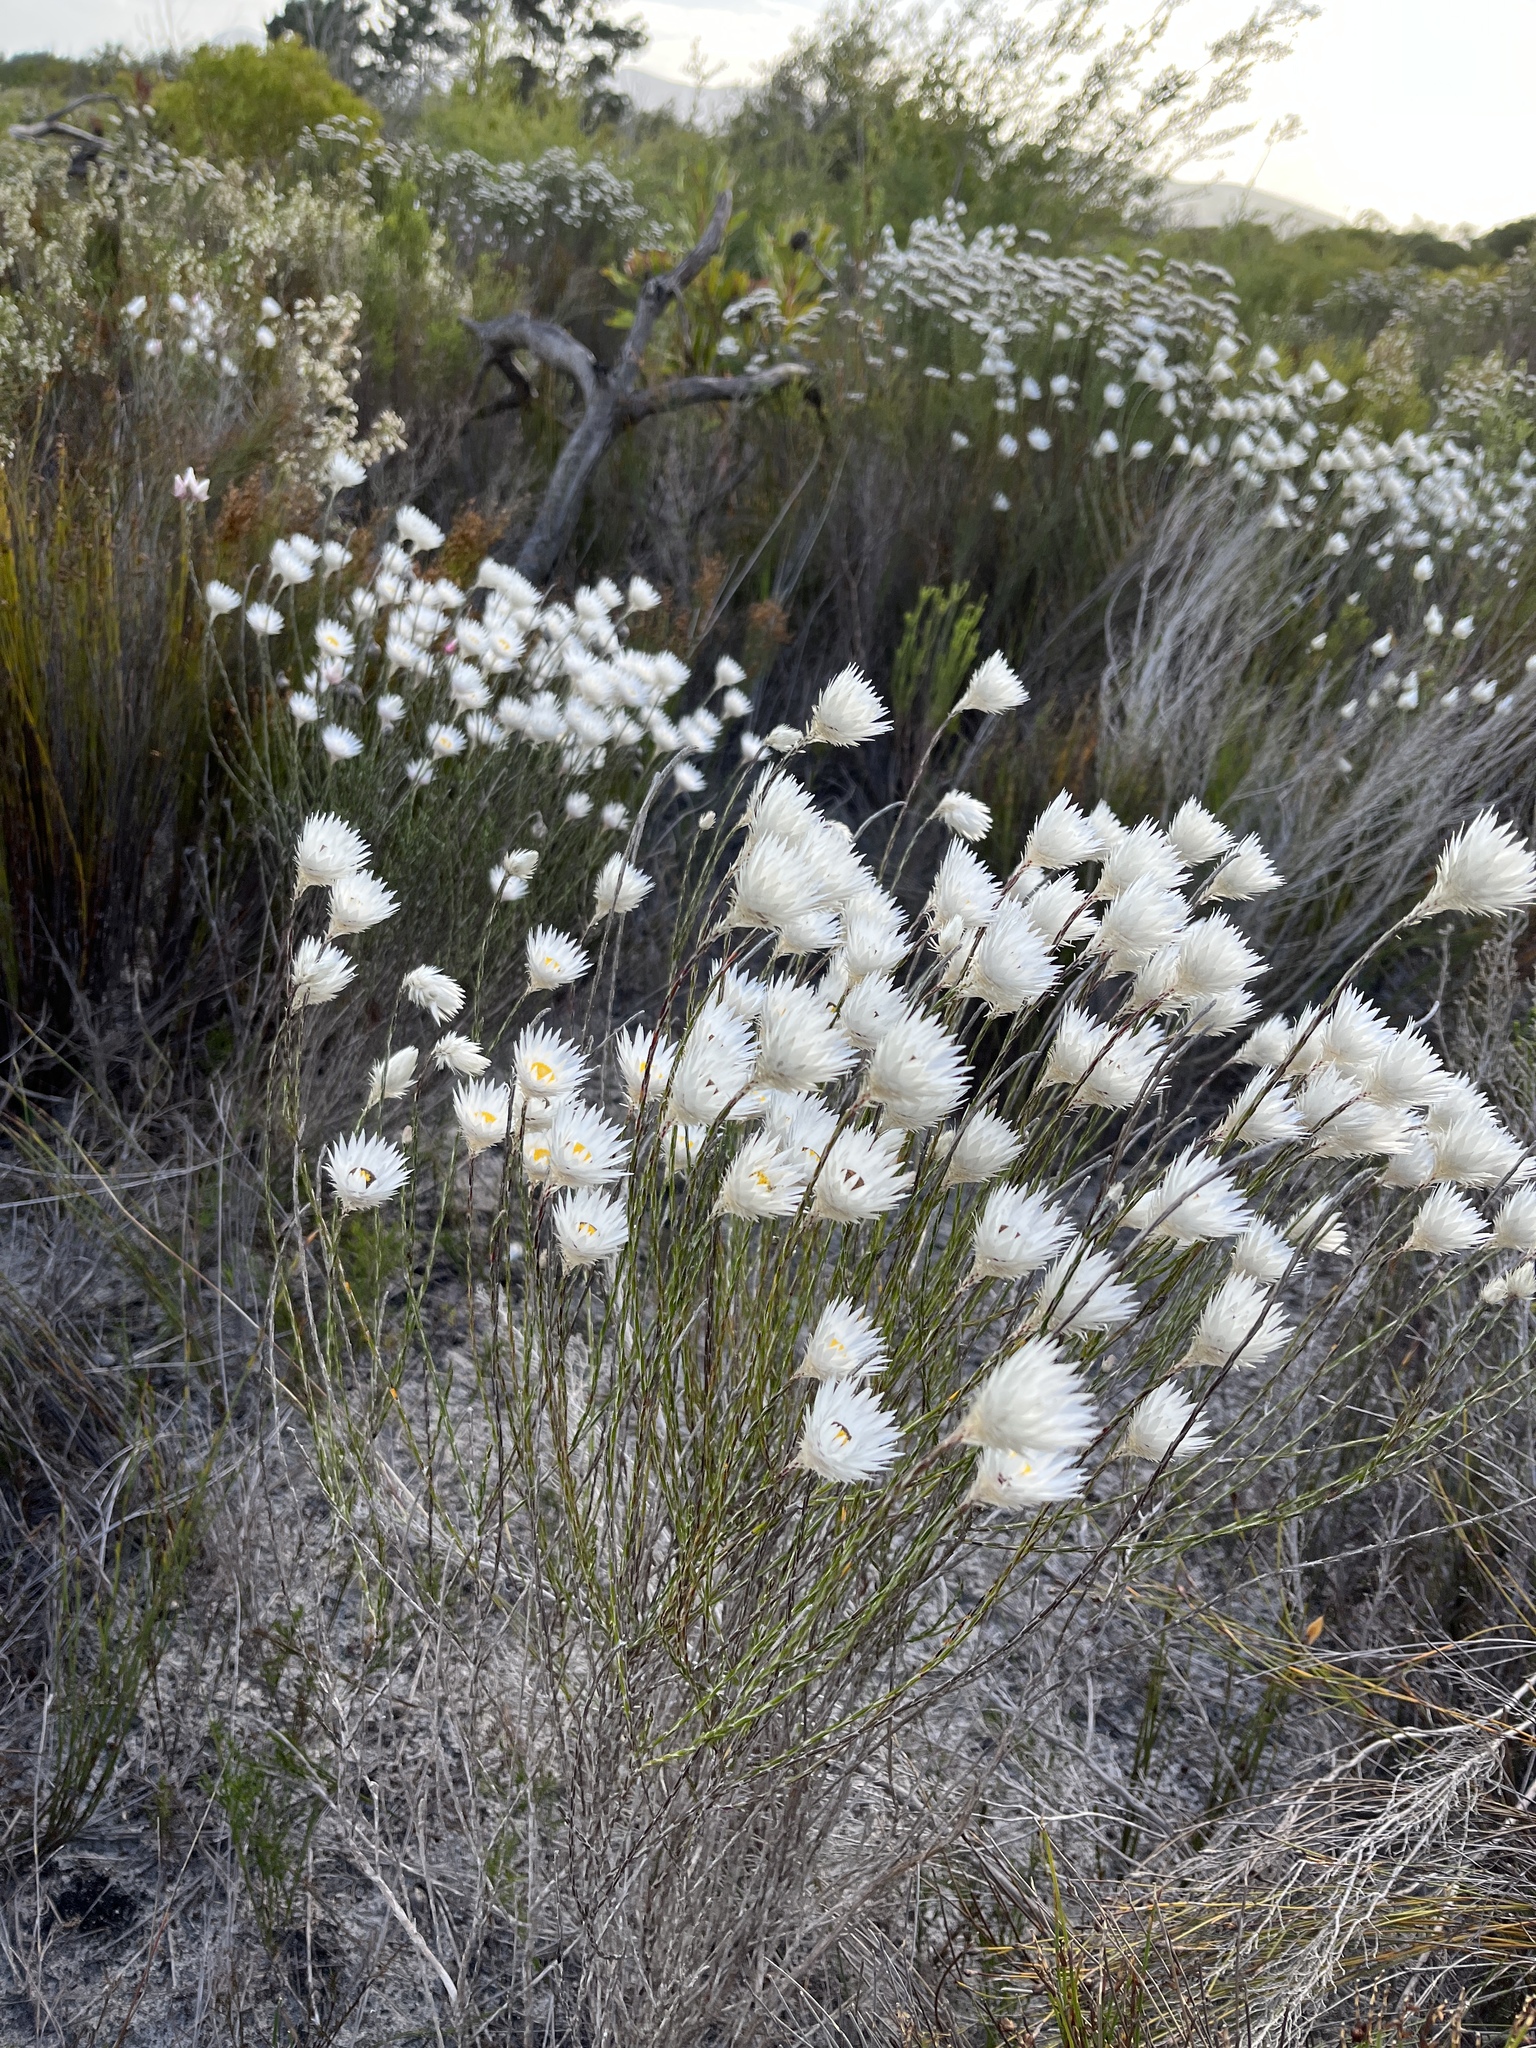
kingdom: Plantae
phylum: Tracheophyta
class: Magnoliopsida
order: Asterales
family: Asteraceae
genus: Edmondia
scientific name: Edmondia sesamoides
